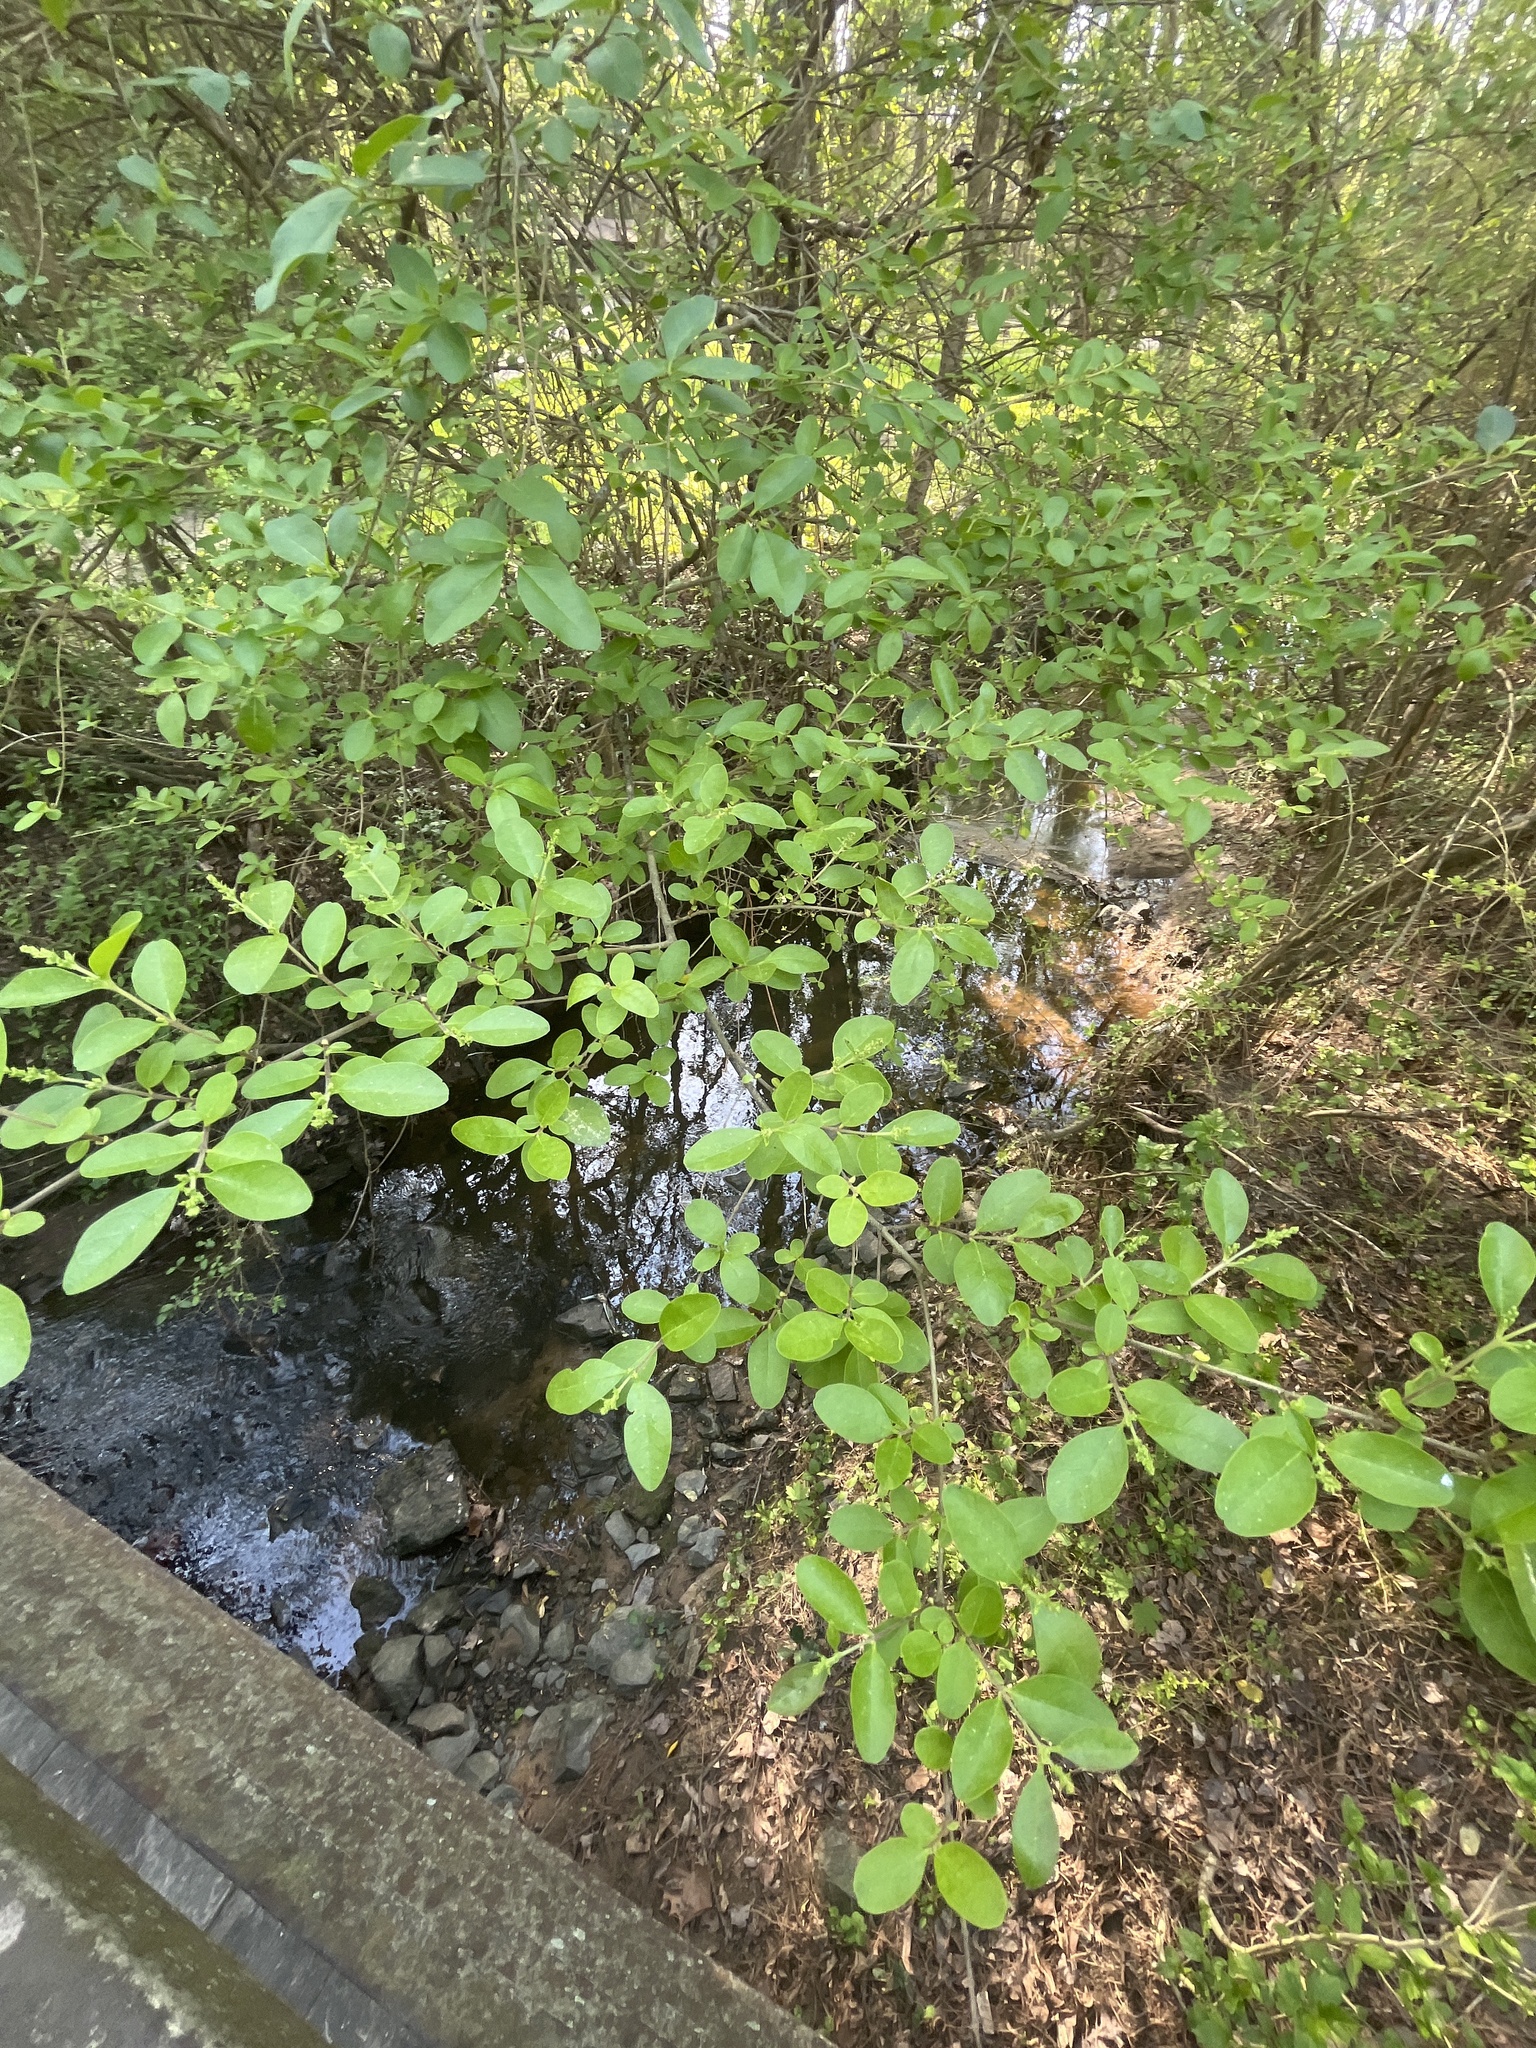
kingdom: Plantae
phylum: Tracheophyta
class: Magnoliopsida
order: Lamiales
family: Oleaceae
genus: Ligustrum
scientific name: Ligustrum sinense
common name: Chinese privet
